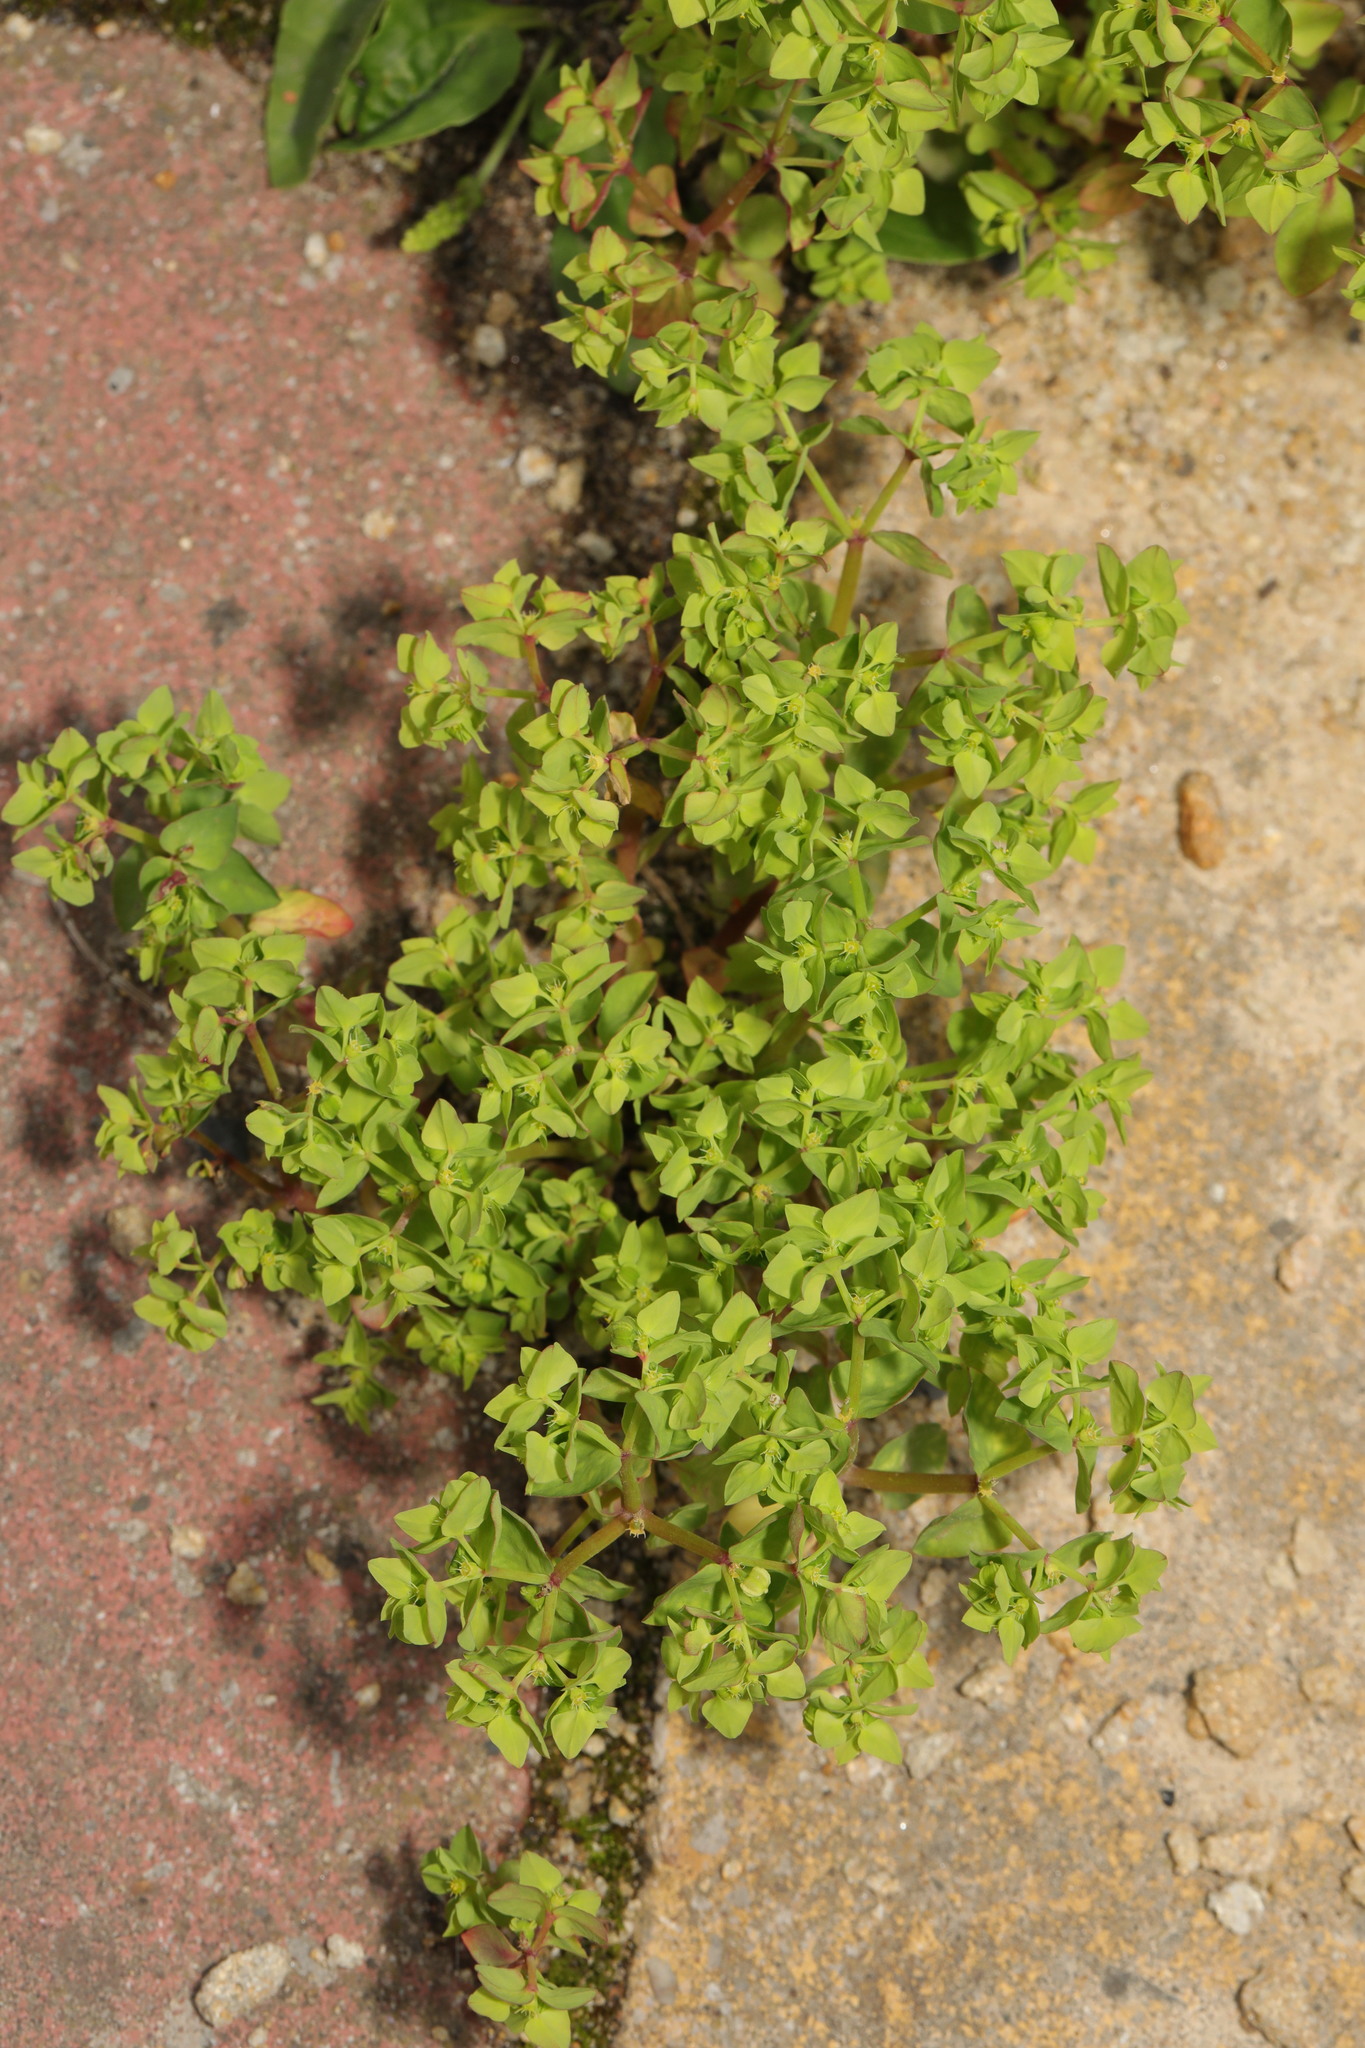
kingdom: Plantae
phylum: Tracheophyta
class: Magnoliopsida
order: Malpighiales
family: Euphorbiaceae
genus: Euphorbia
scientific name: Euphorbia peplus
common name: Petty spurge
